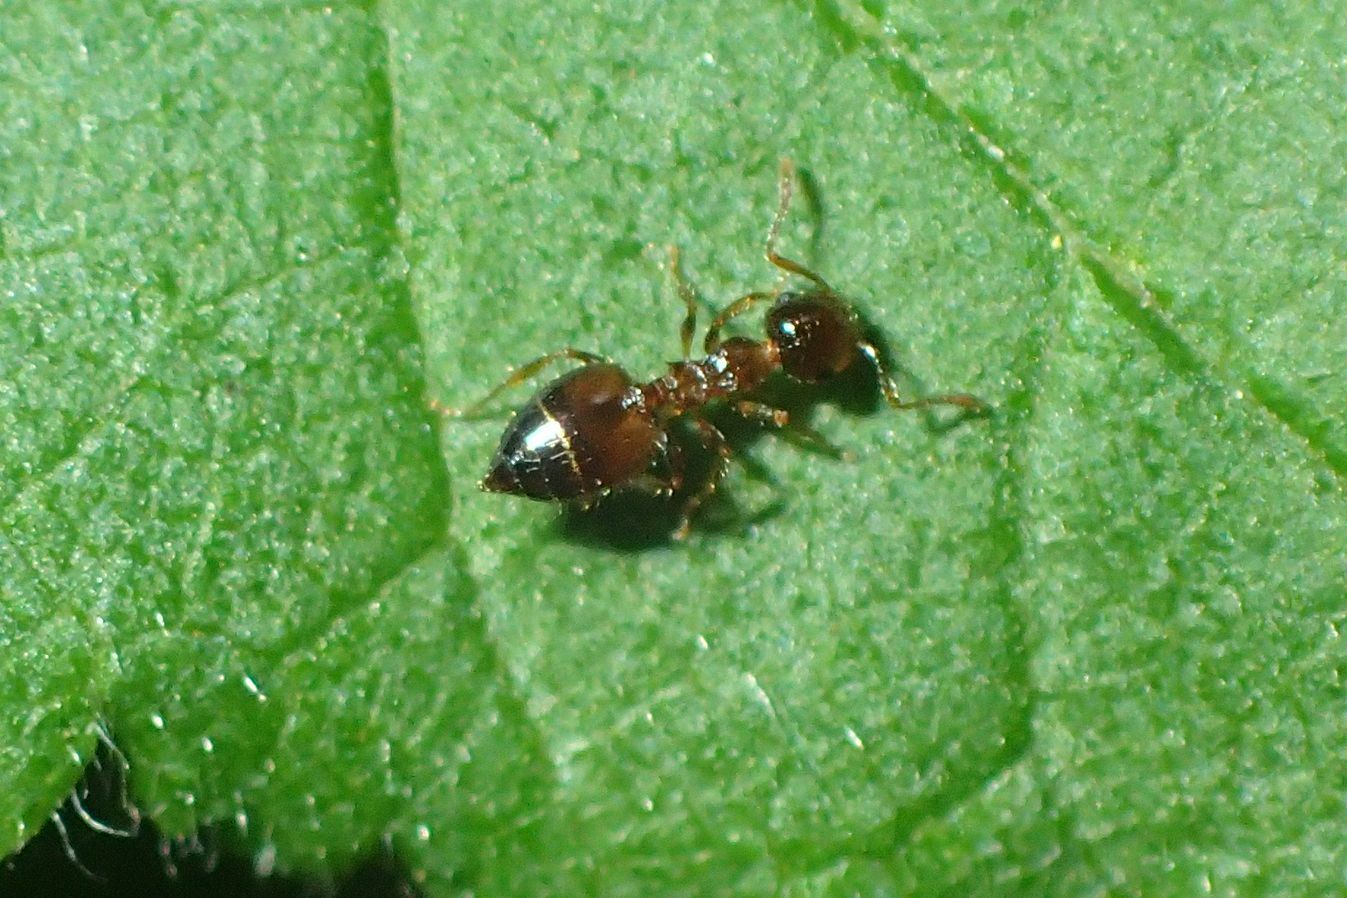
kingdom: Animalia
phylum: Arthropoda
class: Insecta
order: Hymenoptera
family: Formicidae
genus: Crematogaster
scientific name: Crematogaster sordidula
